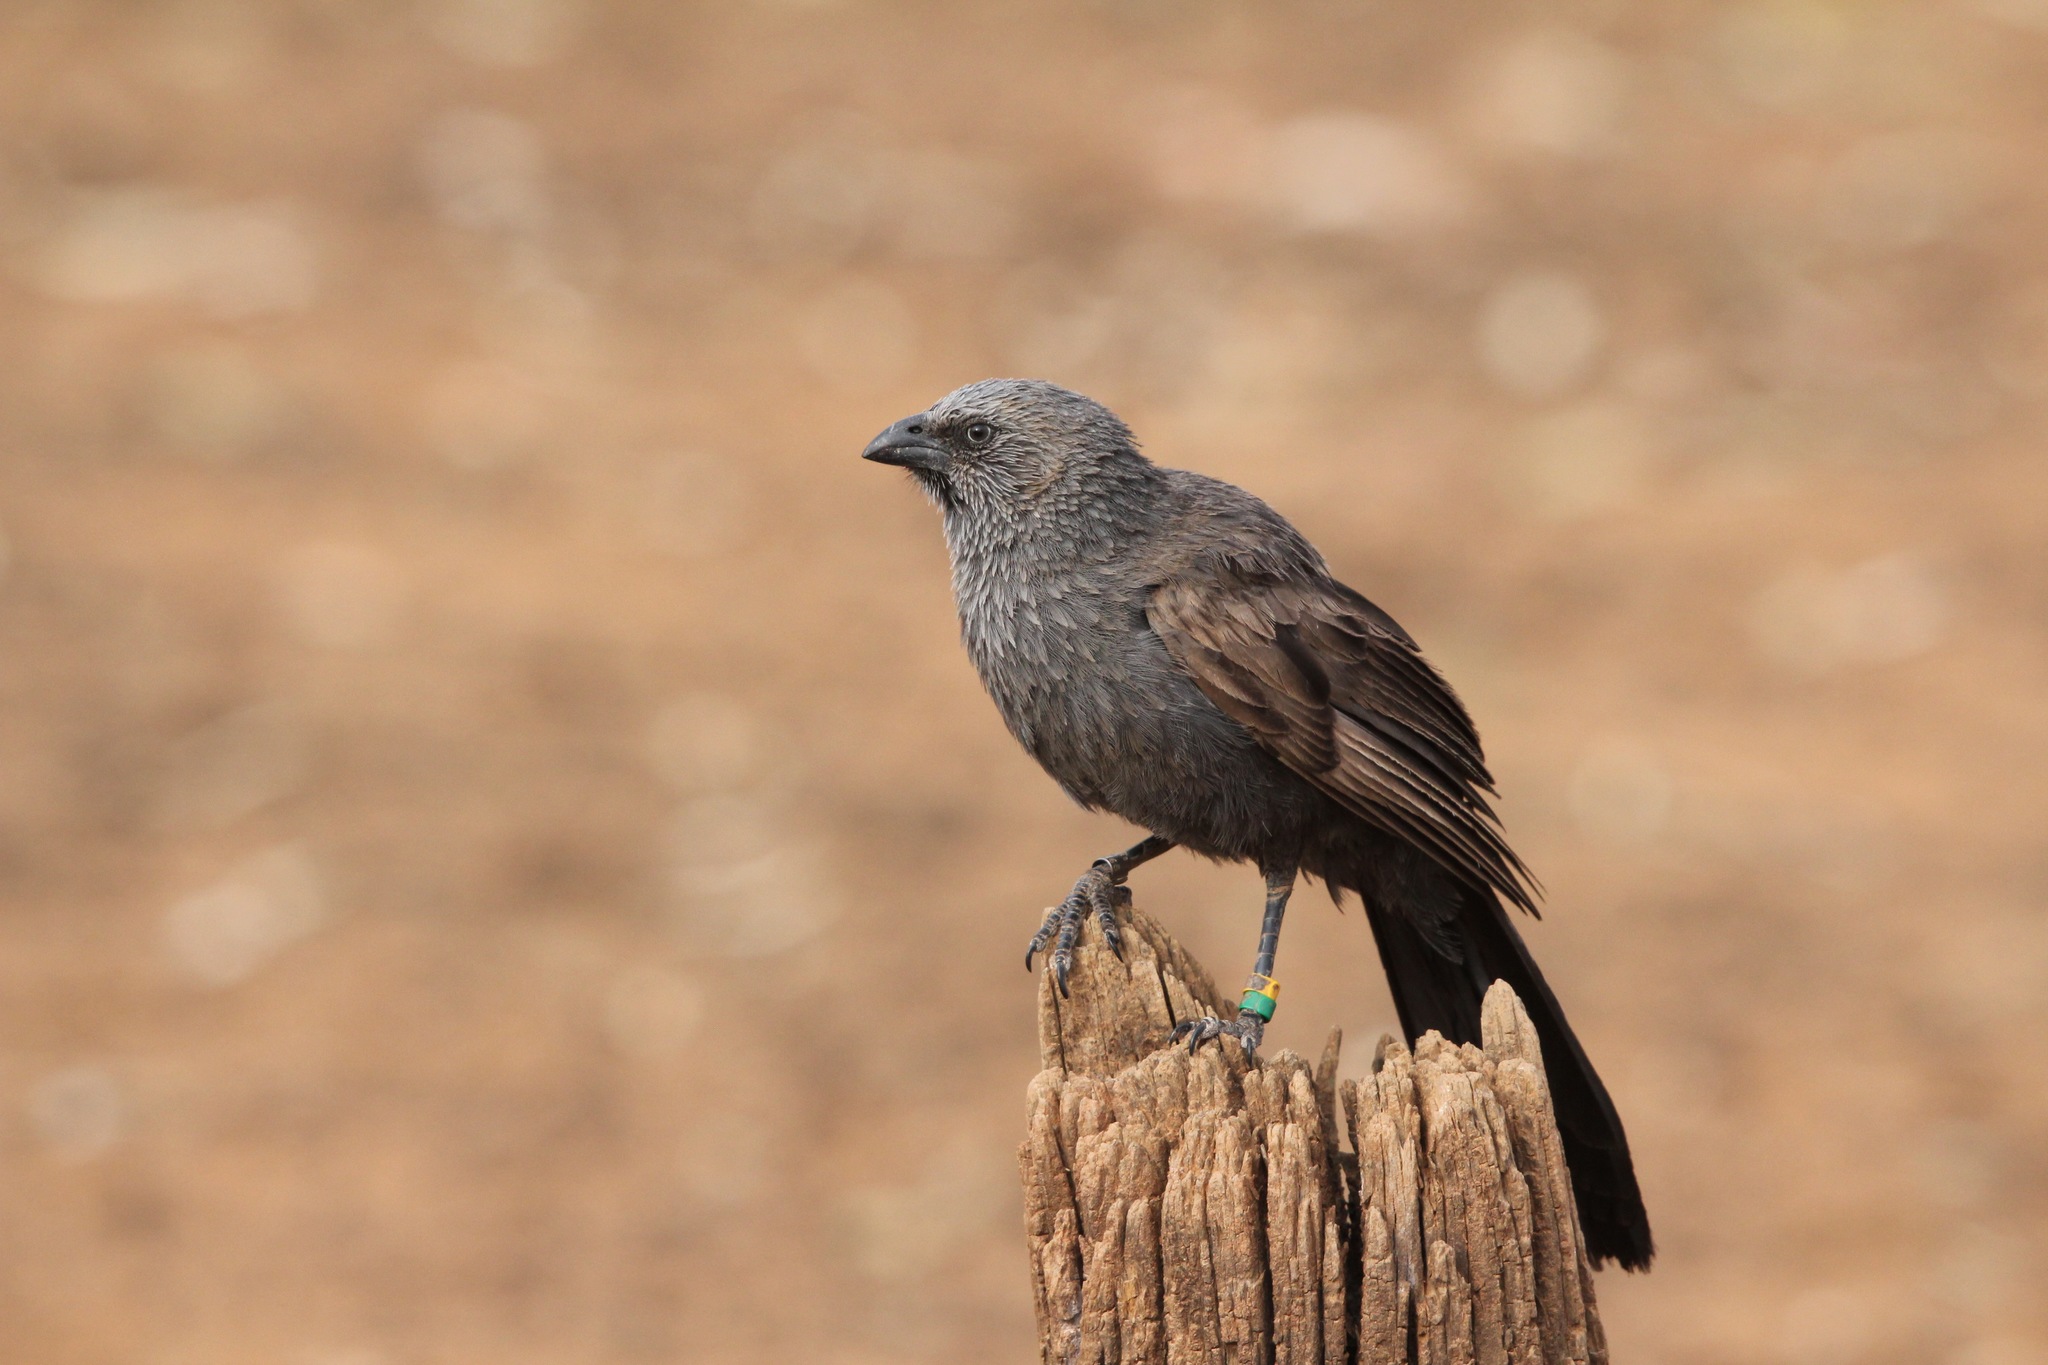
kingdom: Animalia
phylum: Chordata
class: Aves
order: Passeriformes
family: Corcoracidae
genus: Struthidea
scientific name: Struthidea cinerea
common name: Apostlebird
